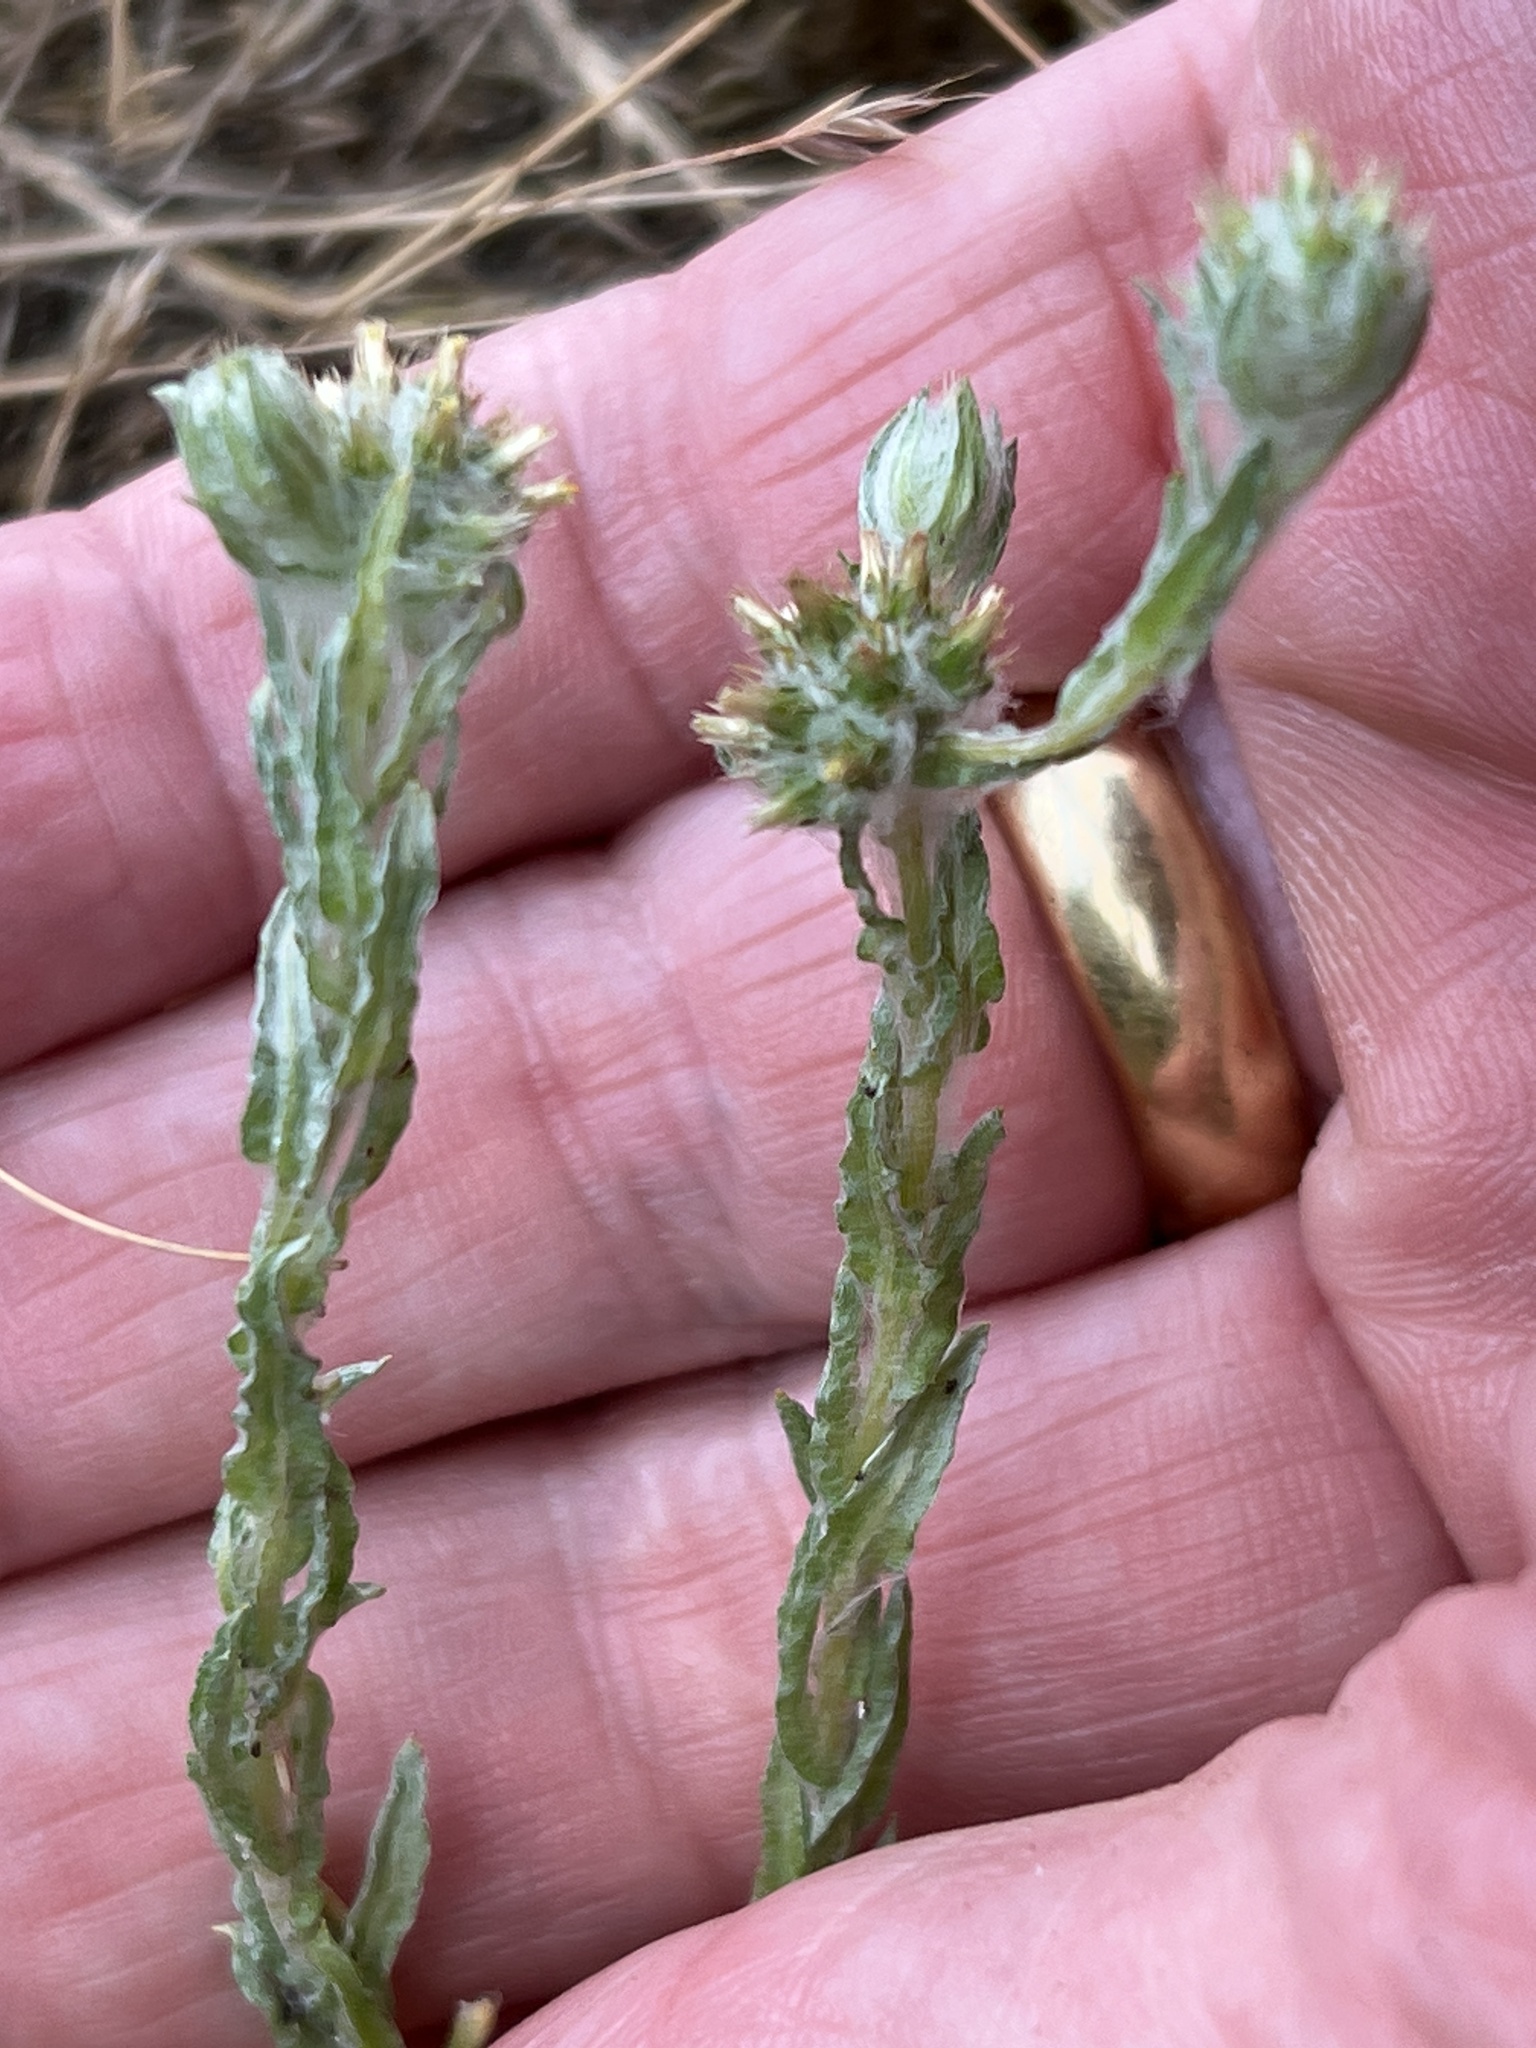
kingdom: Plantae
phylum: Tracheophyta
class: Magnoliopsida
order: Asterales
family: Asteraceae
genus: Filago
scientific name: Filago germanica
